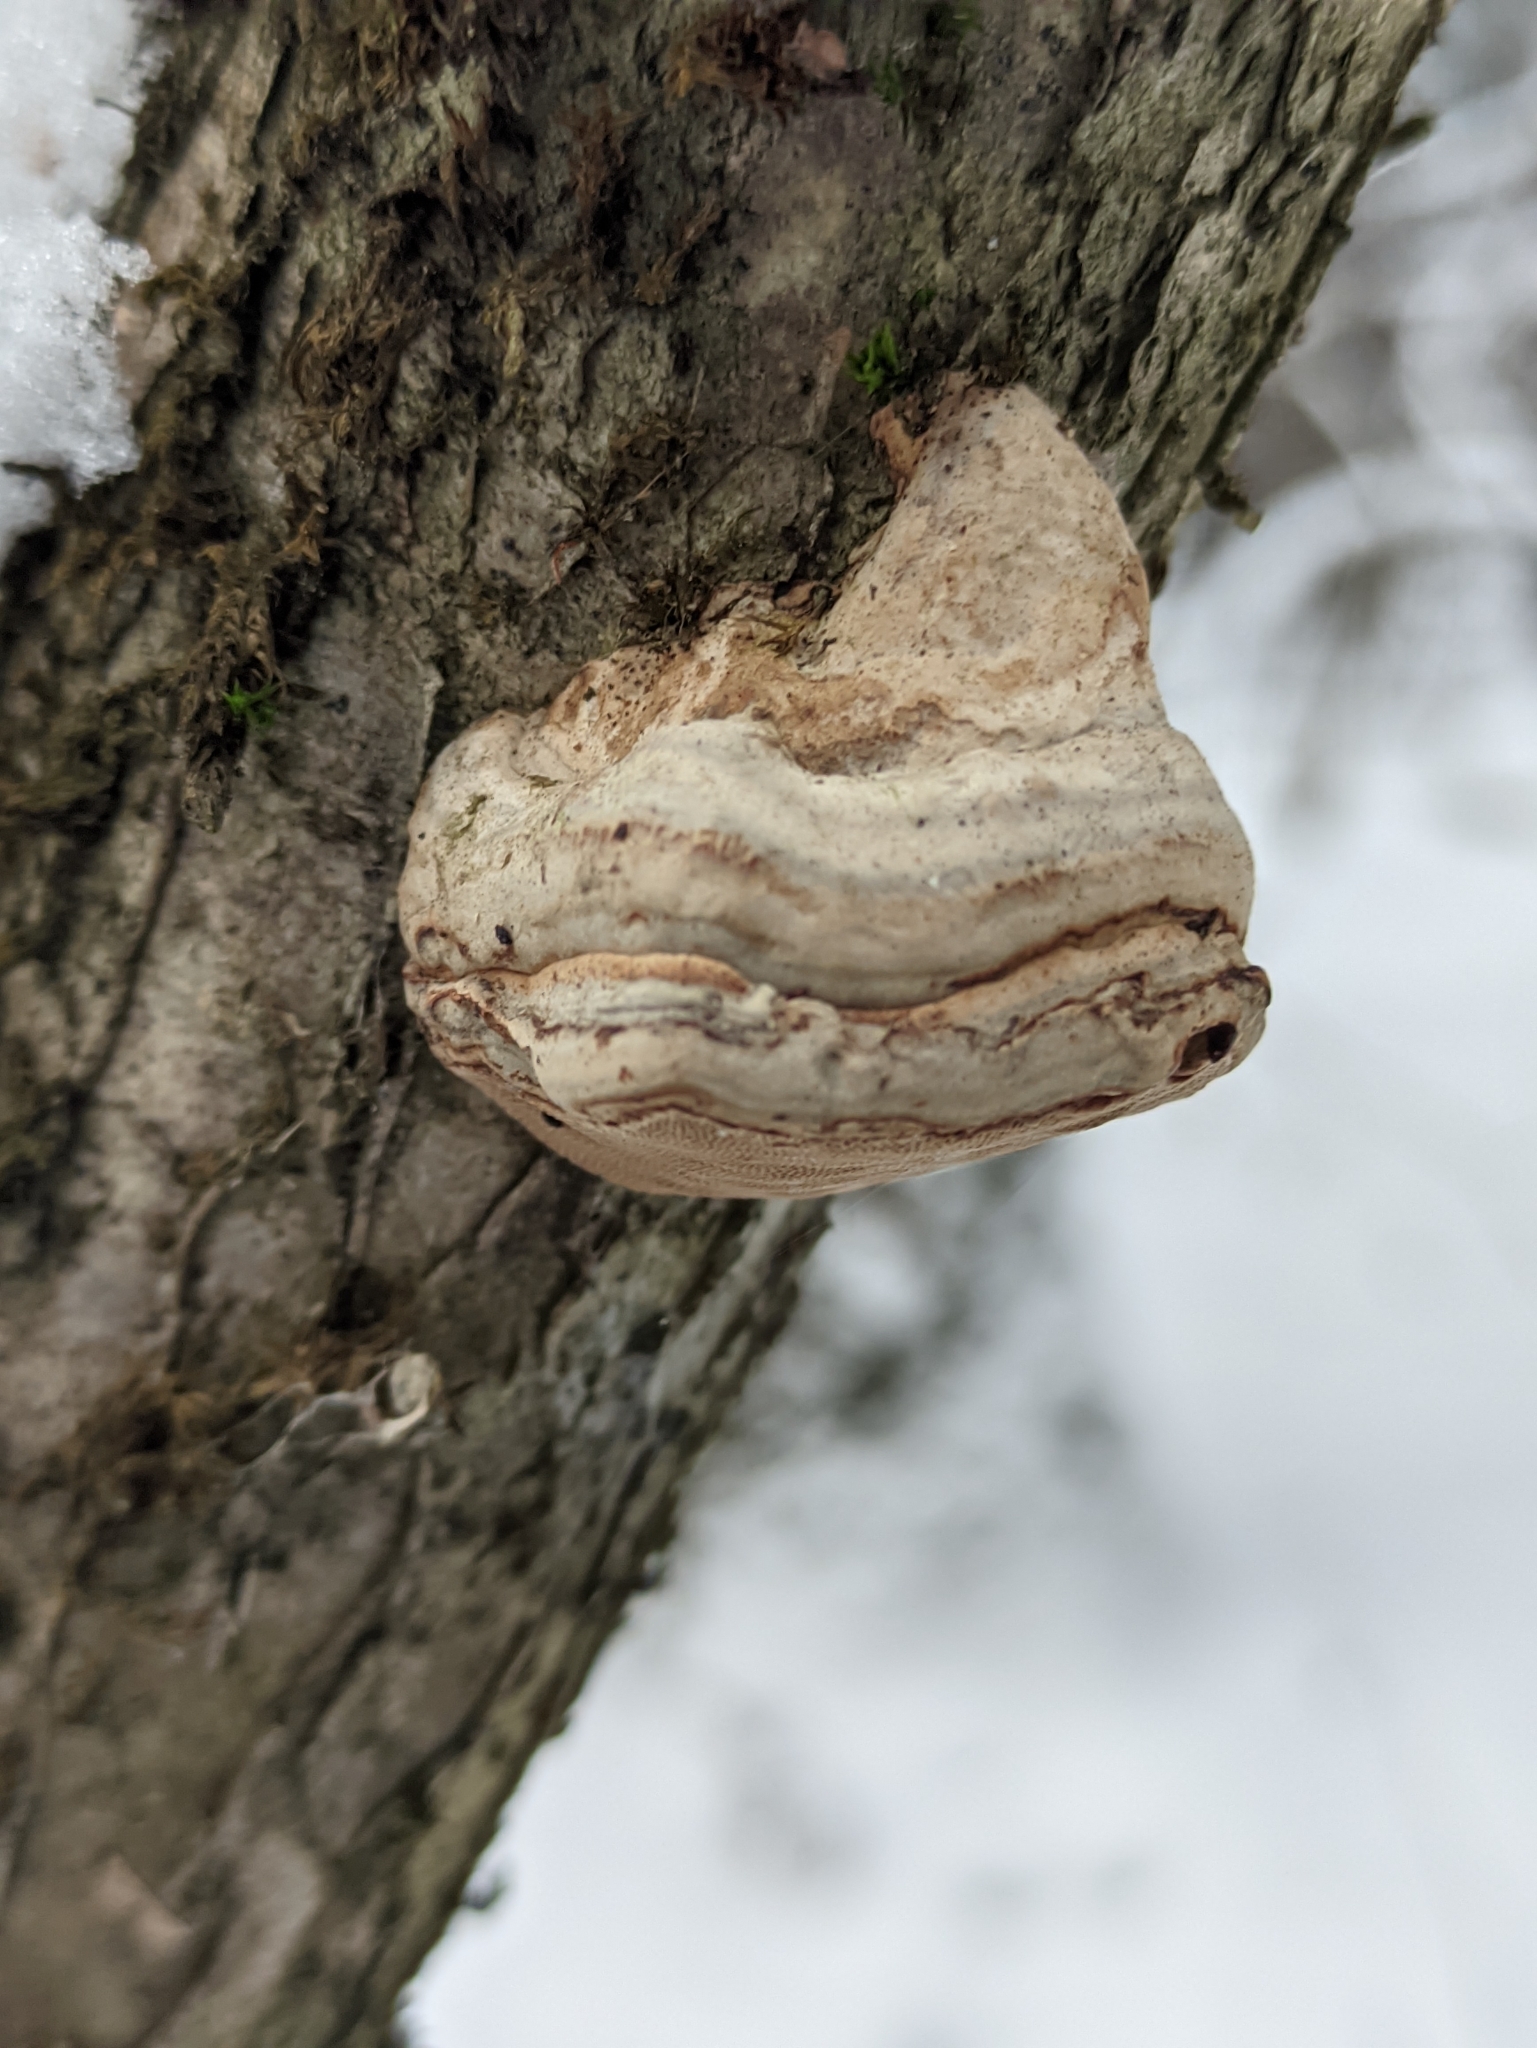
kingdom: Fungi
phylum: Basidiomycota
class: Agaricomycetes
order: Polyporales
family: Polyporaceae
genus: Fomes
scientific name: Fomes fomentarius
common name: Hoof fungus
